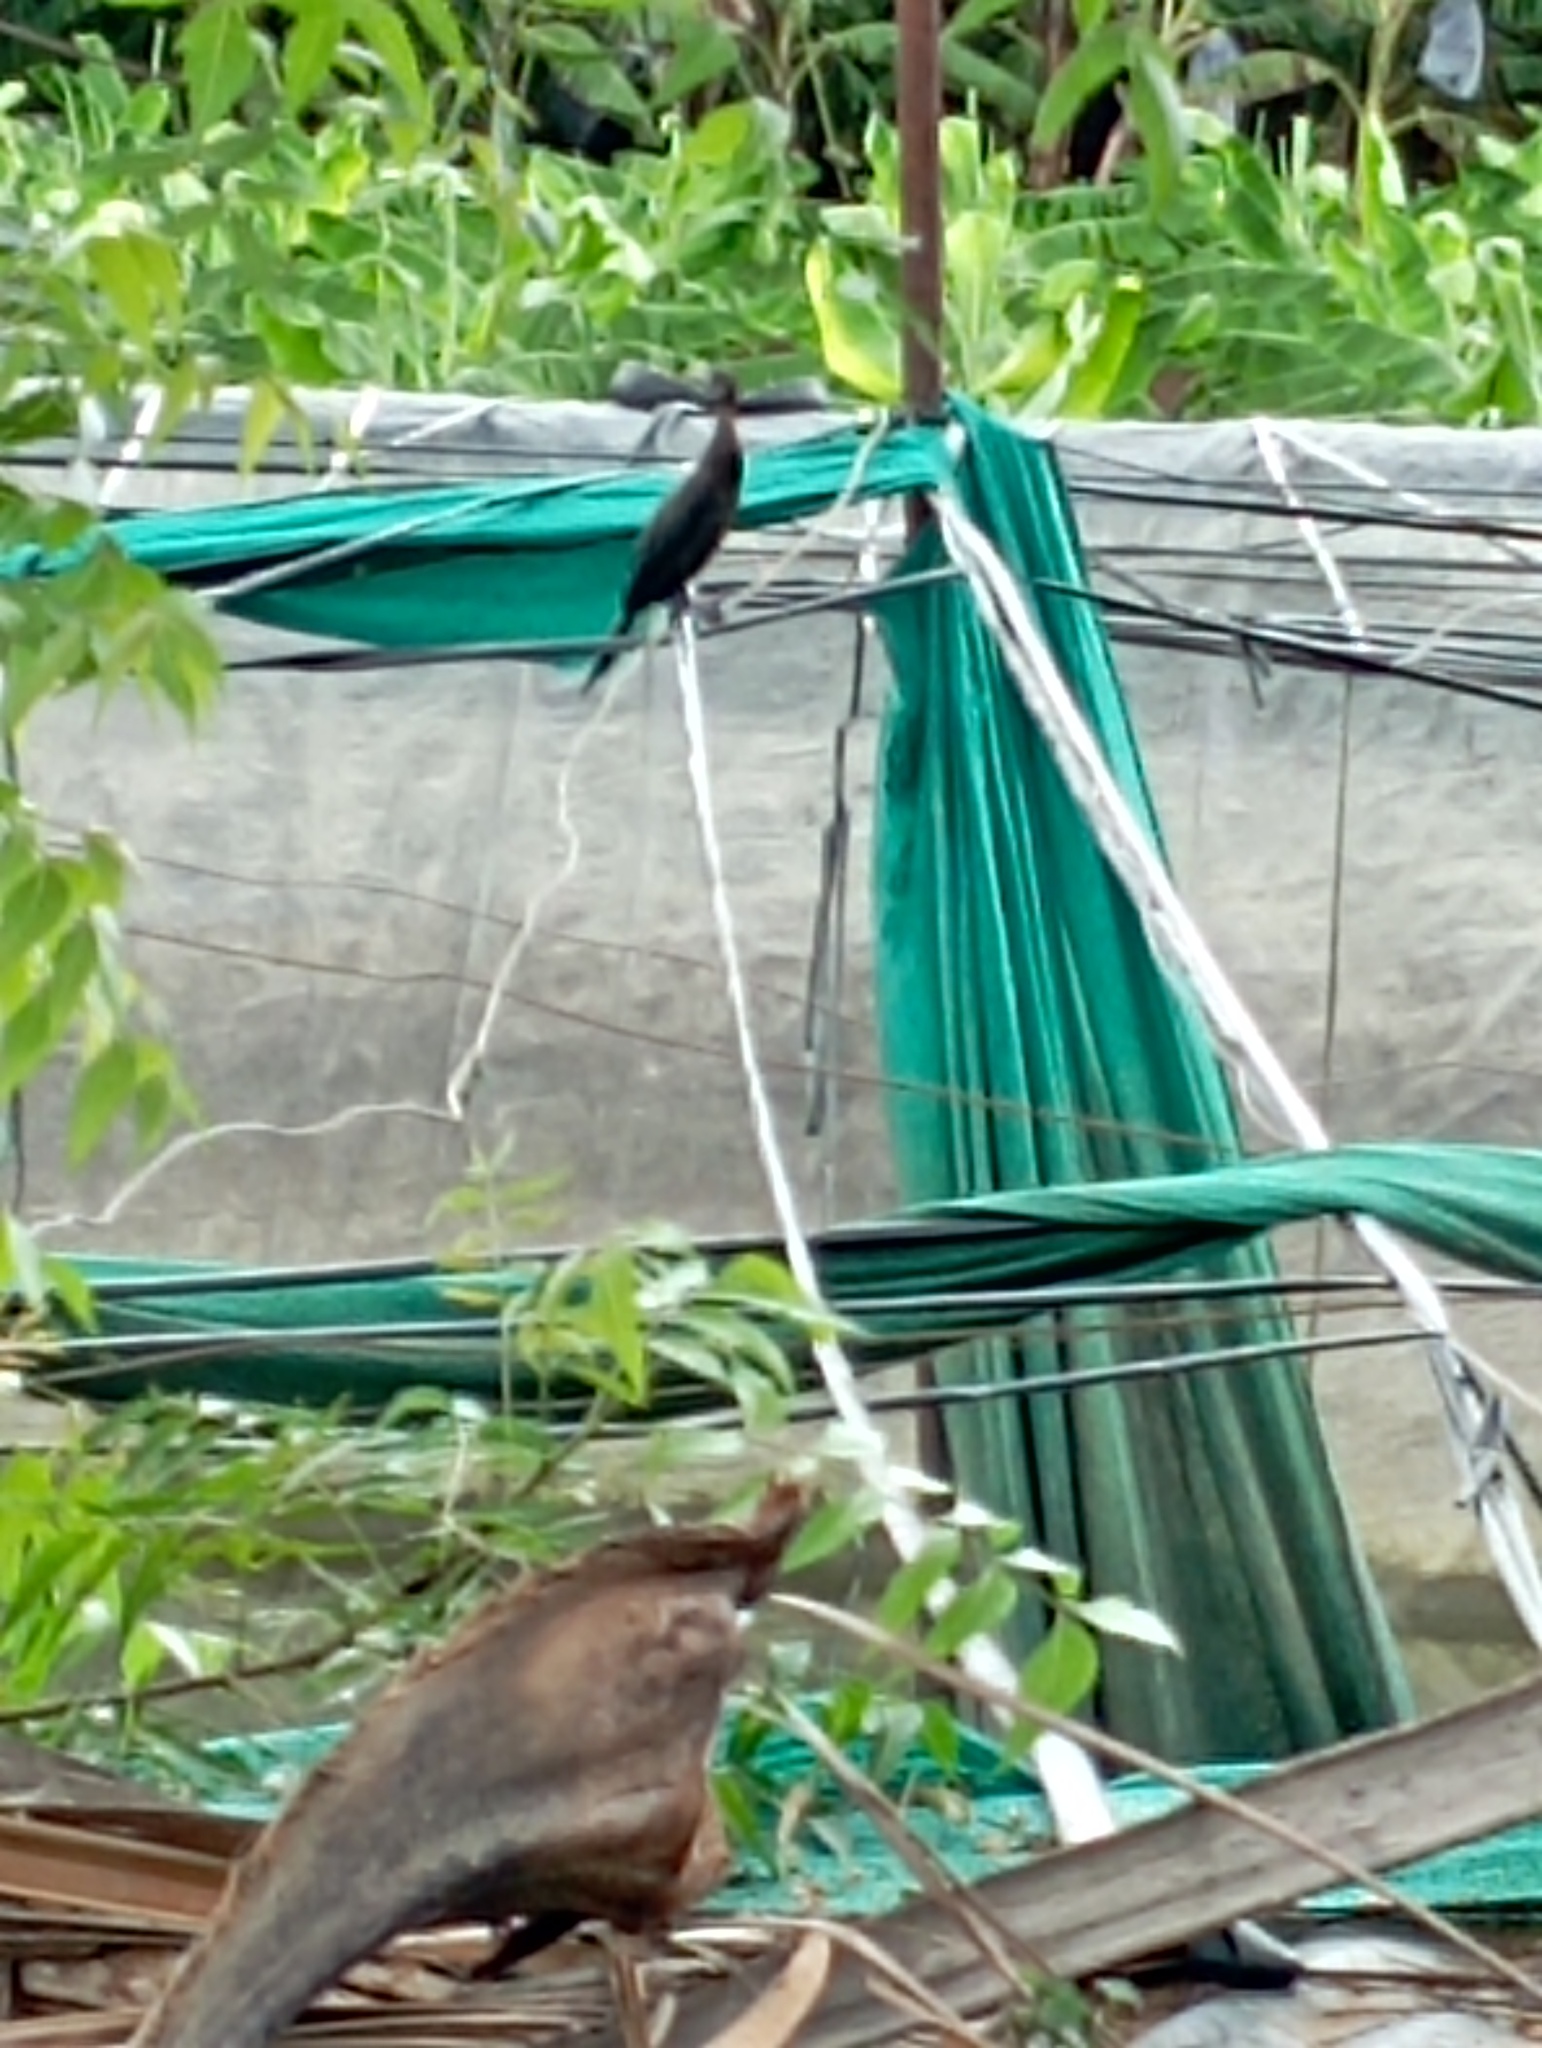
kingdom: Animalia
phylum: Chordata
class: Aves
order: Suliformes
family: Phalacrocoracidae
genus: Microcarbo
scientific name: Microcarbo niger
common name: Little cormorant
